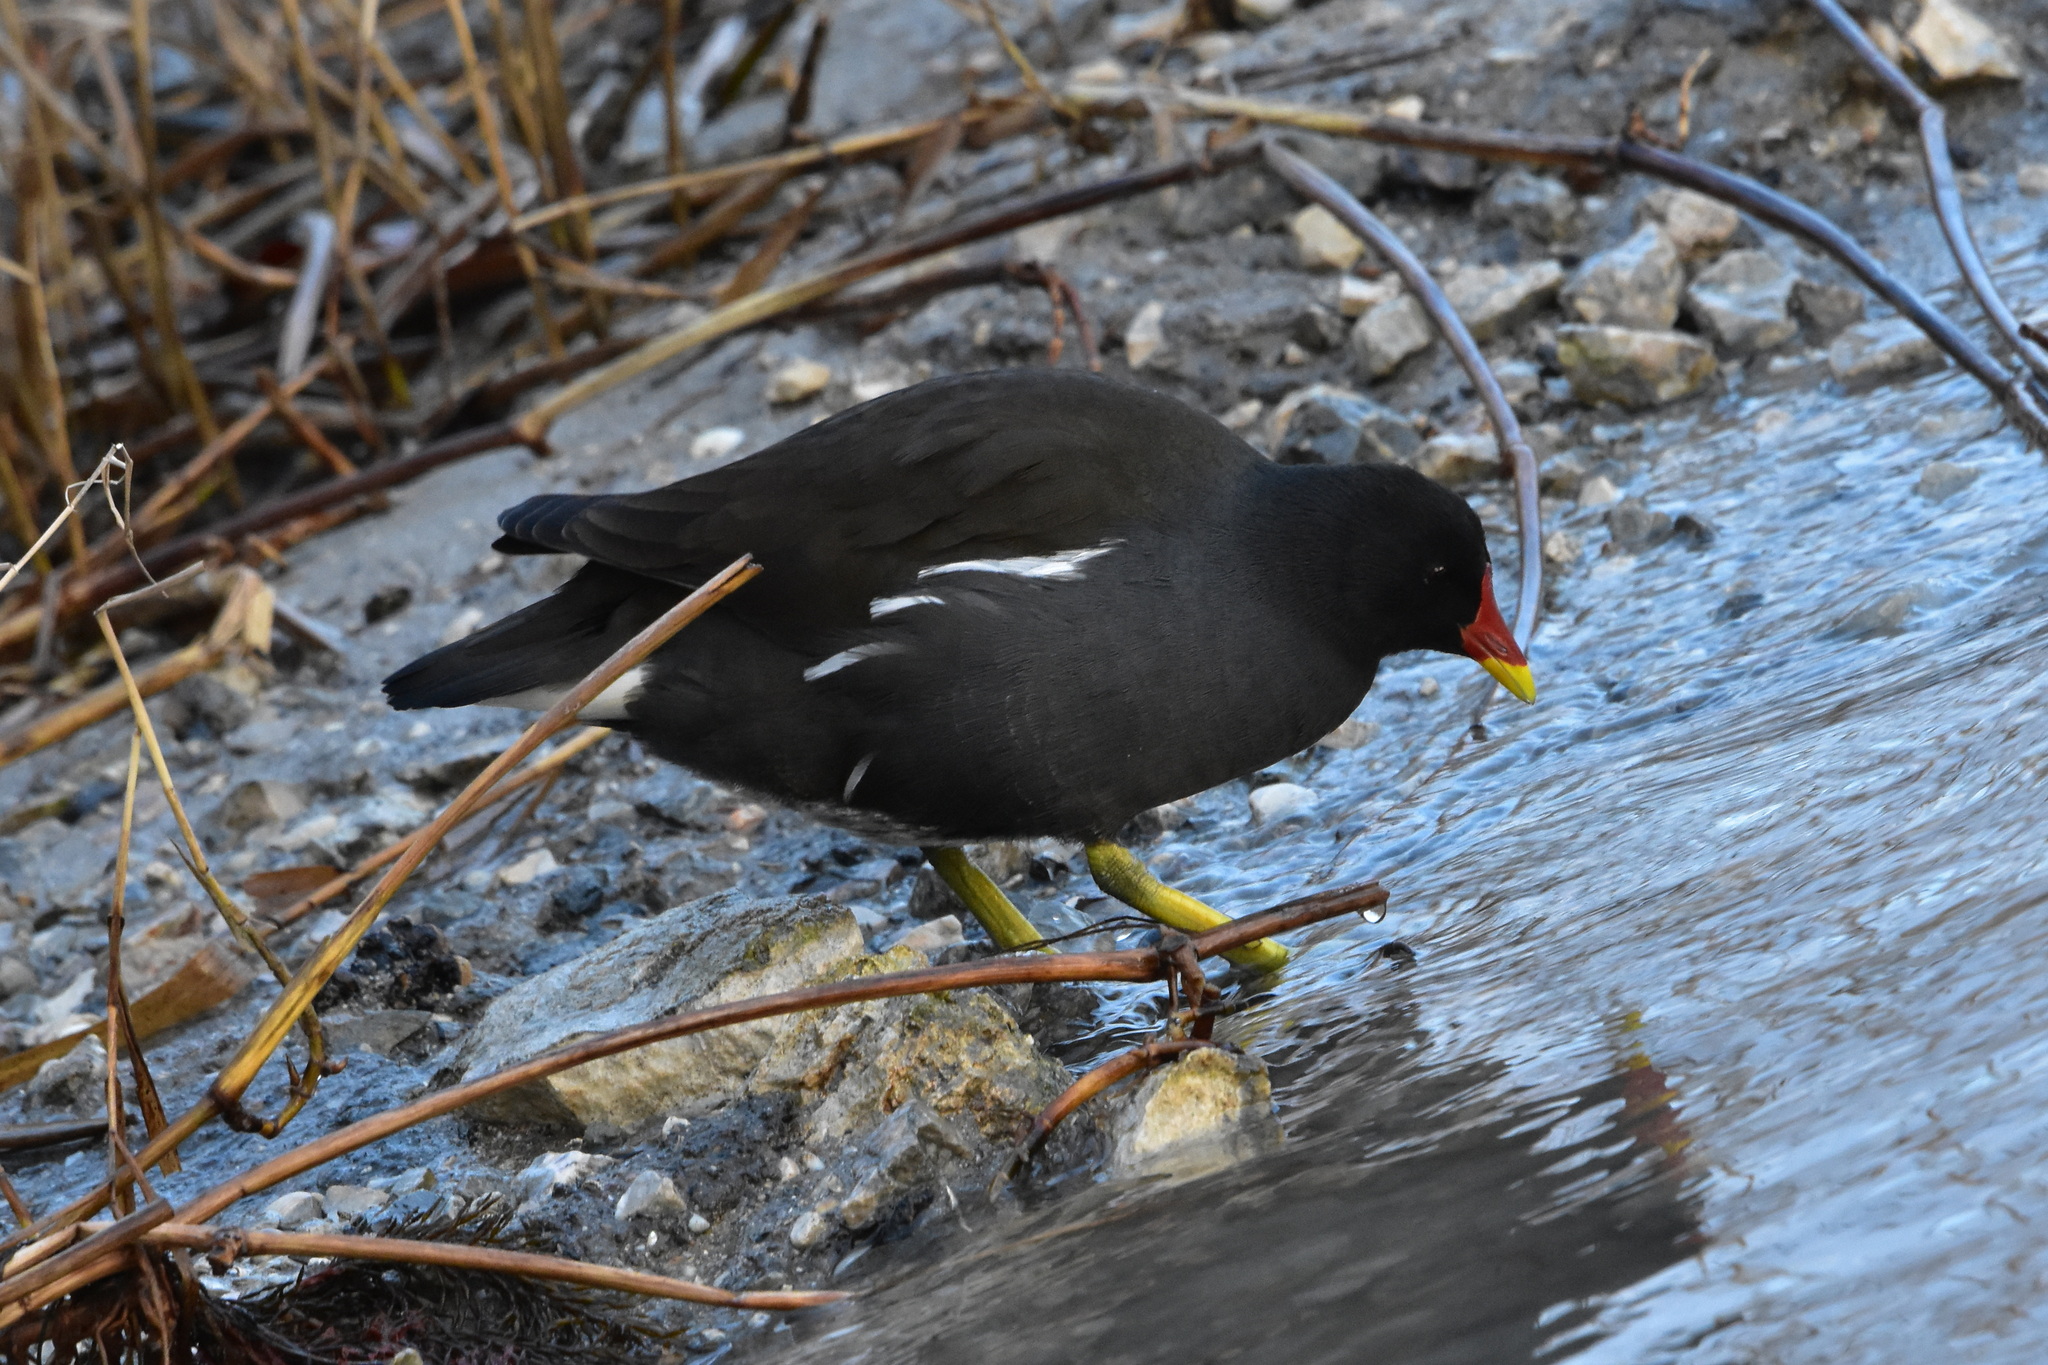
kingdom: Animalia
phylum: Chordata
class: Aves
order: Gruiformes
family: Rallidae
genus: Gallinula
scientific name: Gallinula chloropus
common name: Common moorhen
